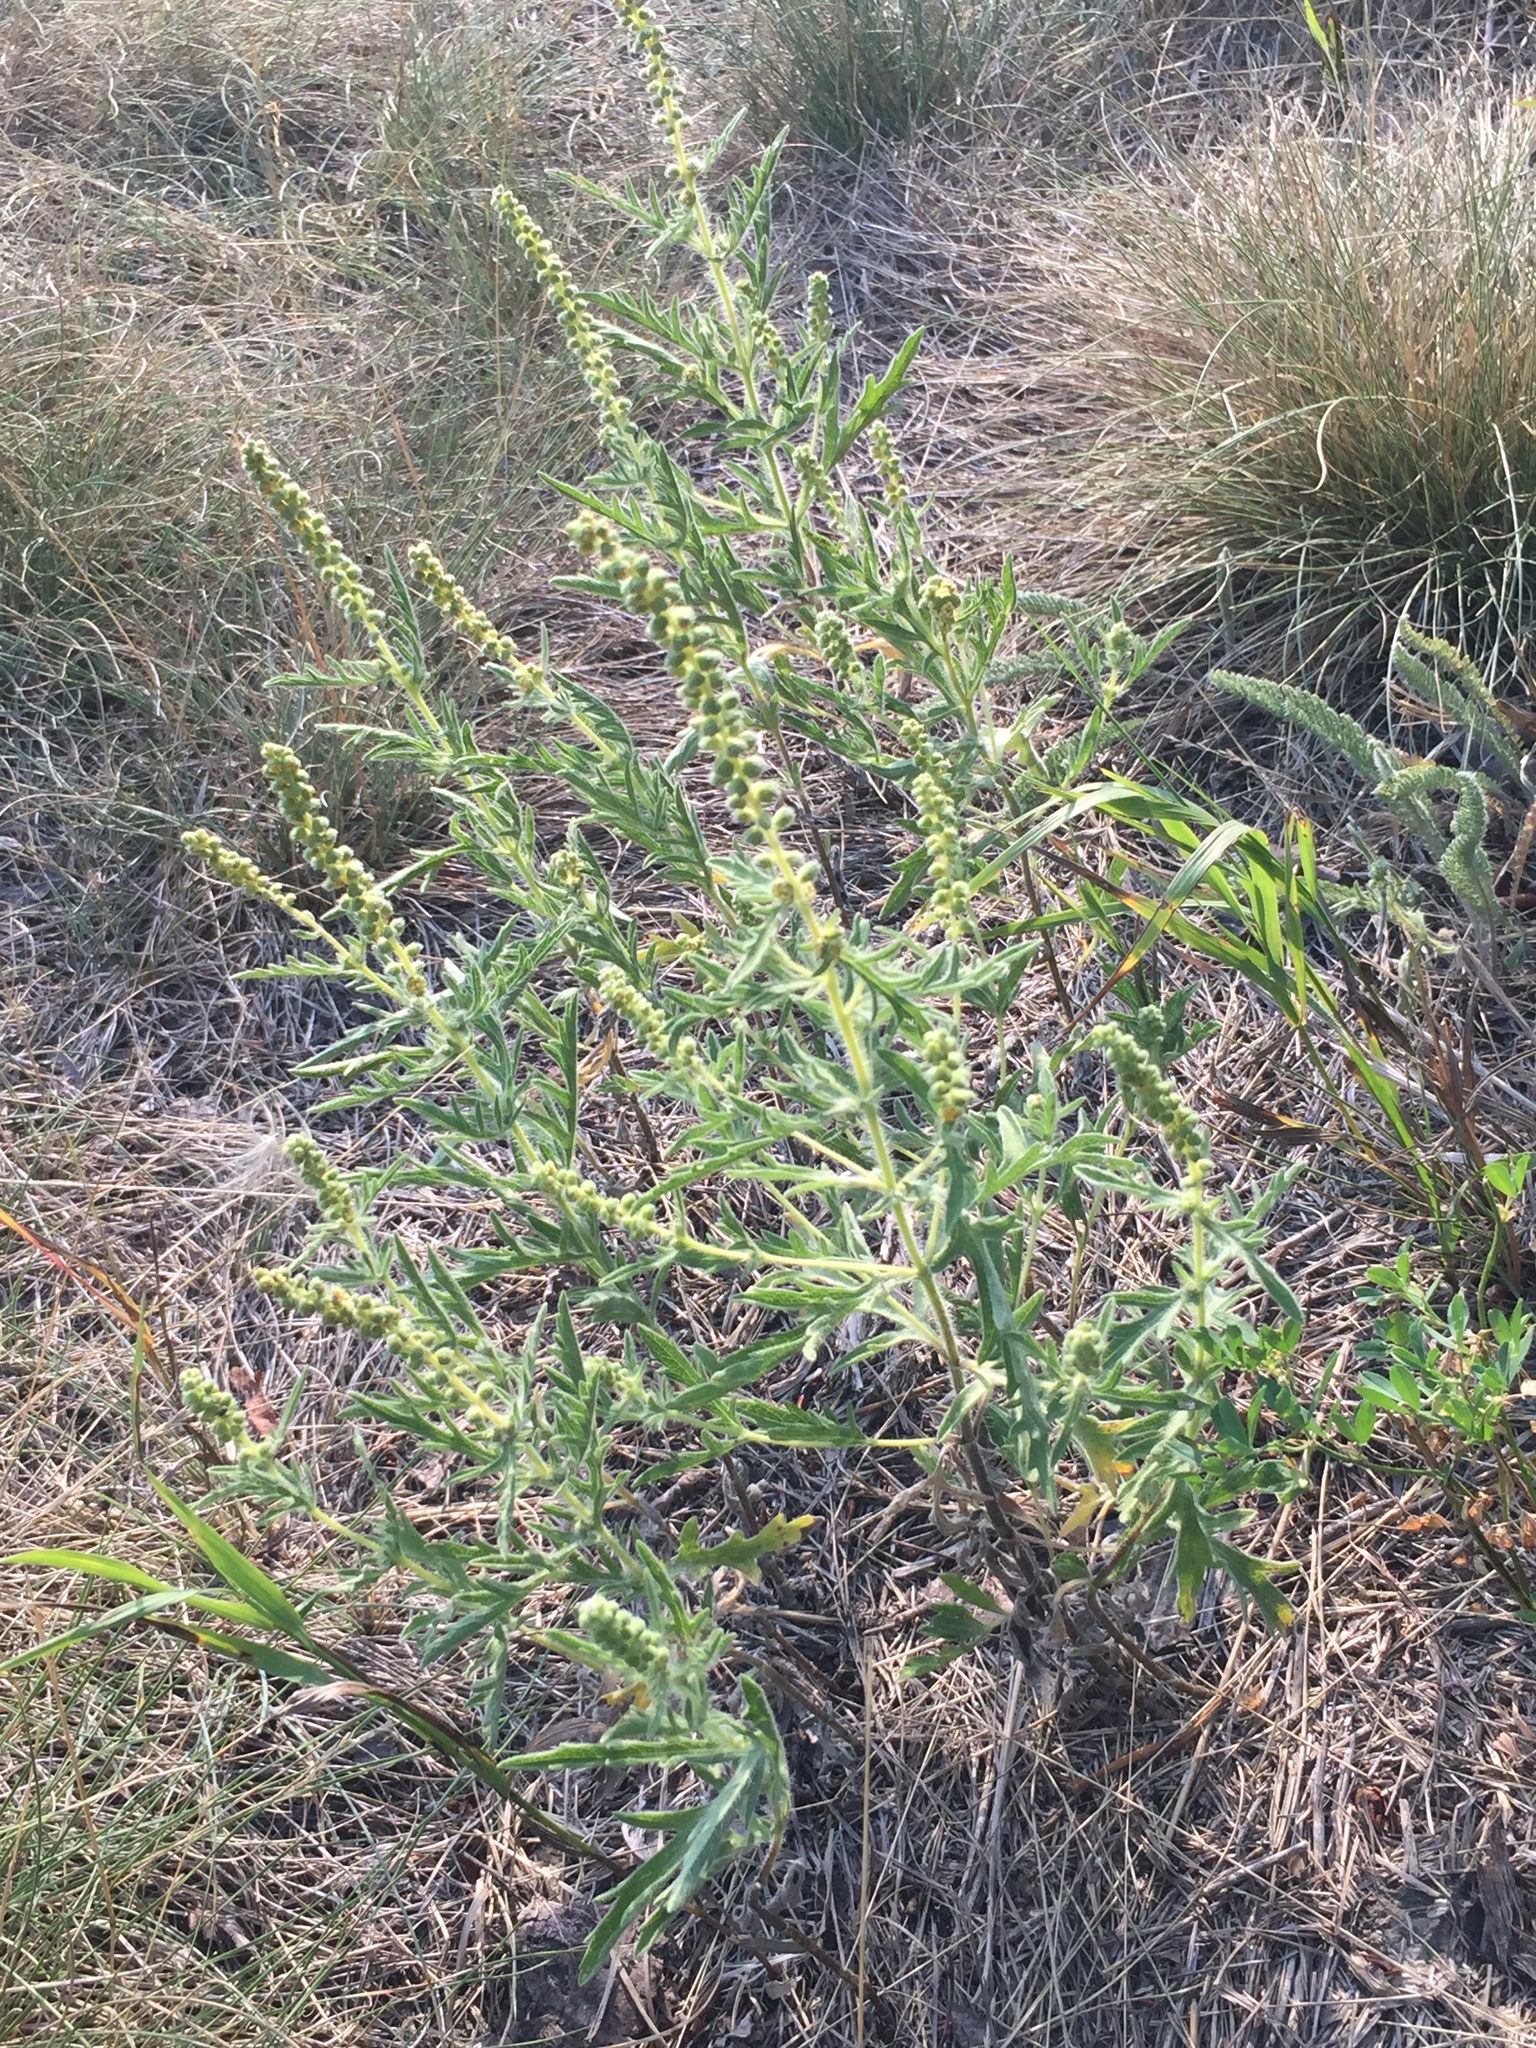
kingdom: Plantae
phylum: Tracheophyta
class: Magnoliopsida
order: Asterales
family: Asteraceae
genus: Ambrosia
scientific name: Ambrosia psilostachya
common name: Perennial ragweed
